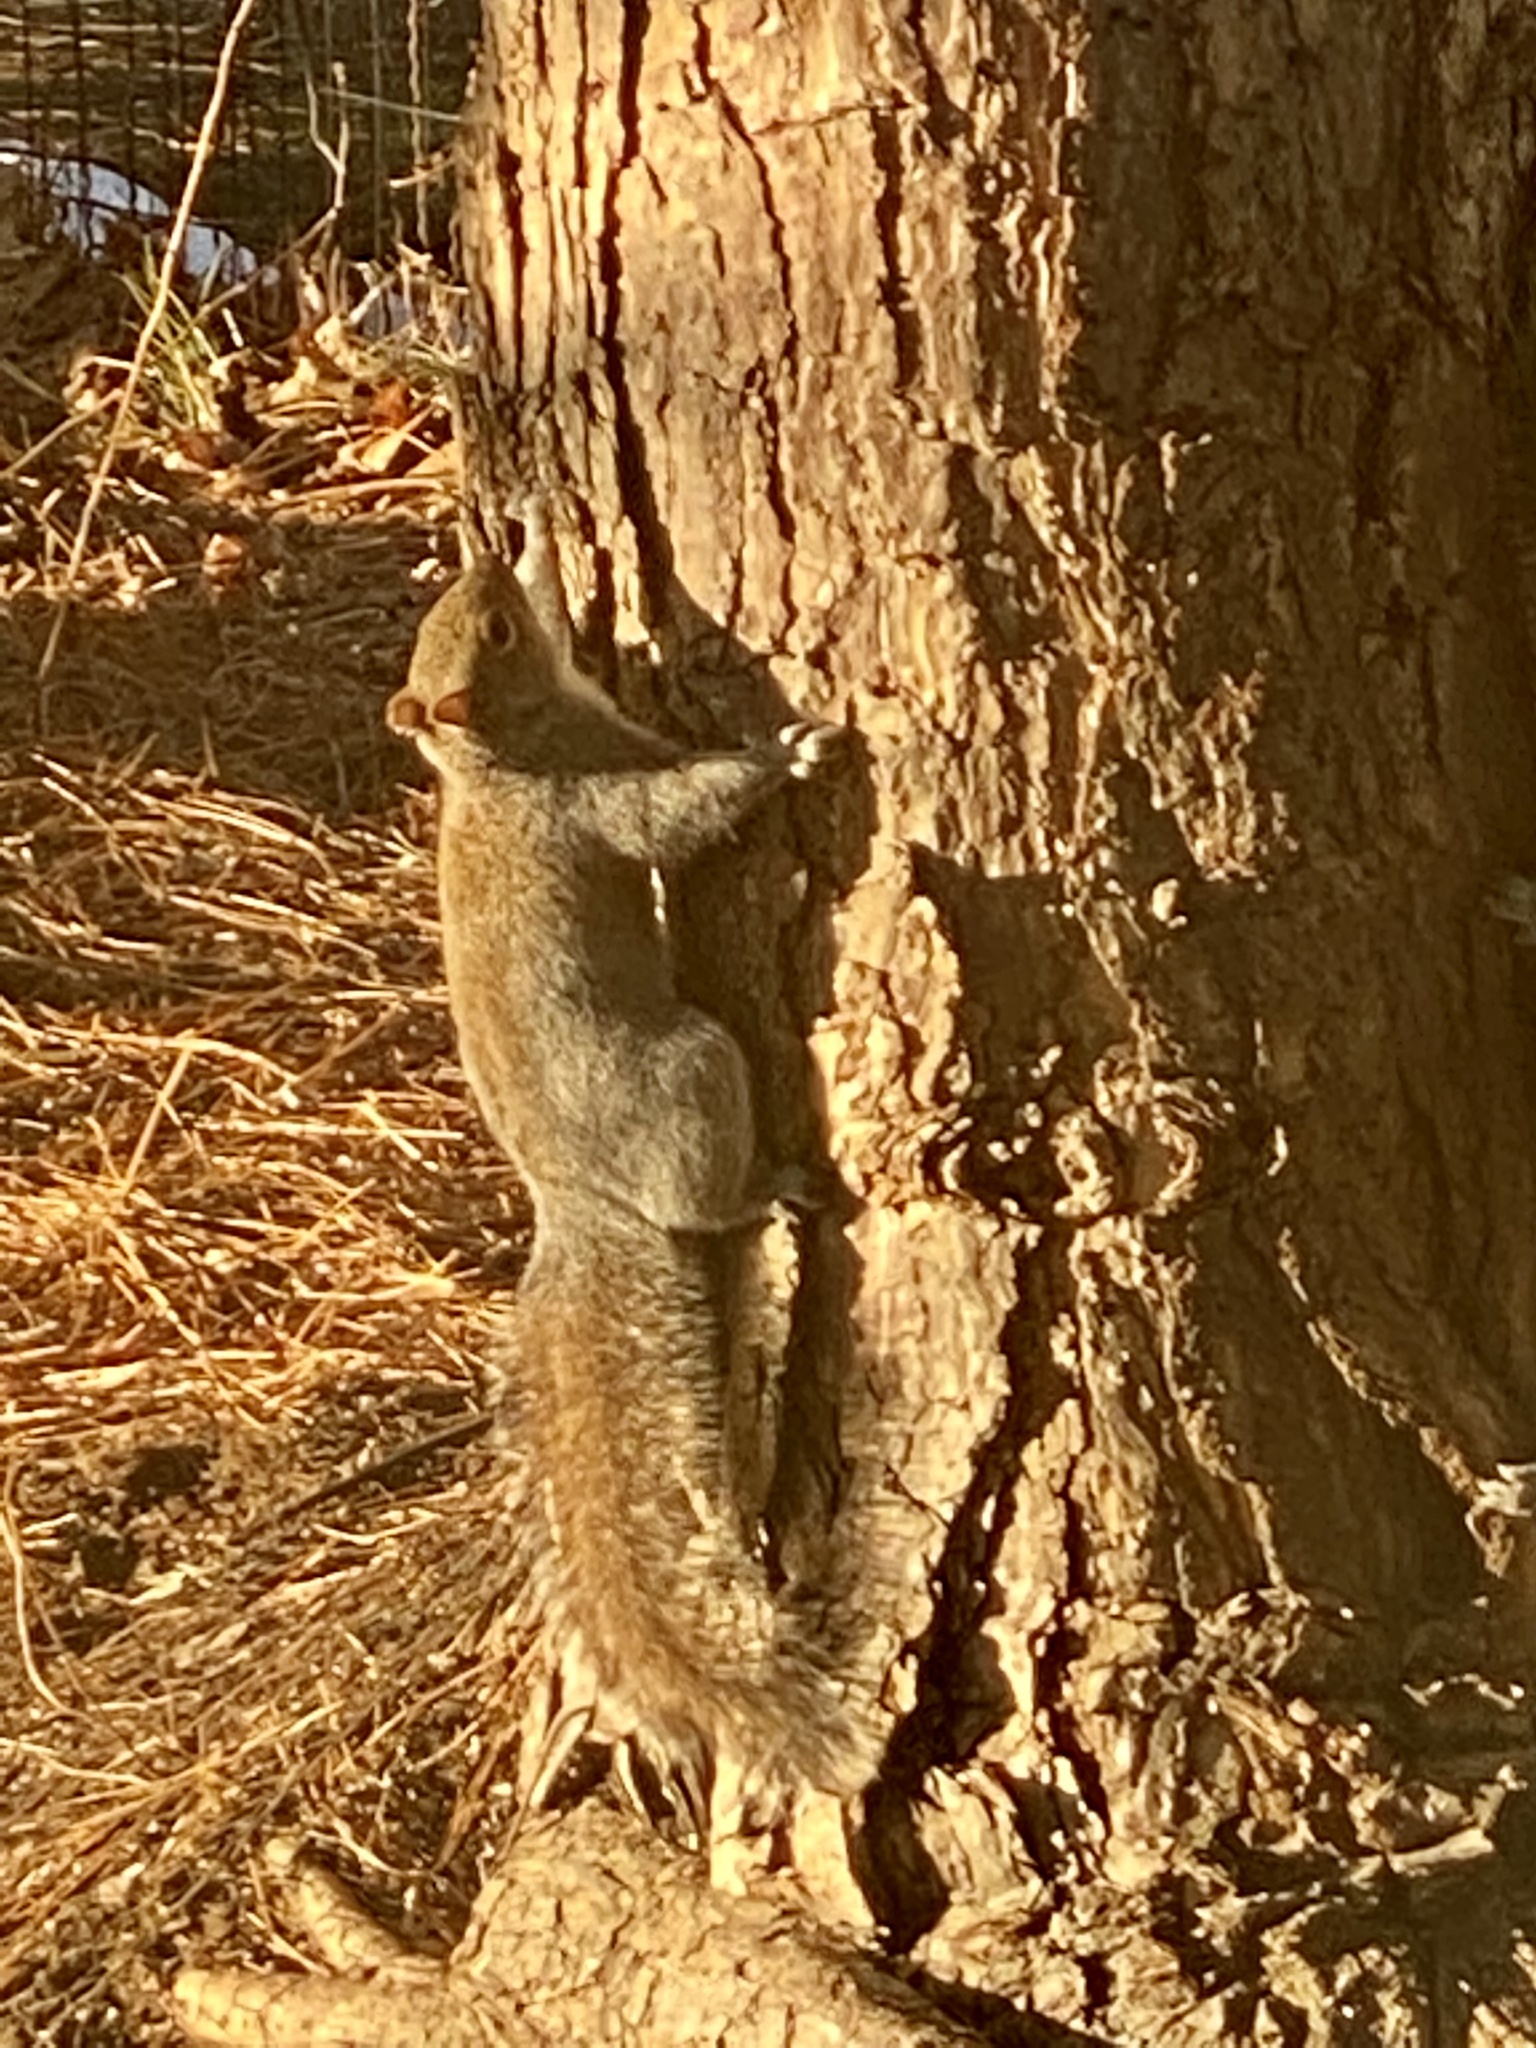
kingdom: Animalia
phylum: Chordata
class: Mammalia
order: Rodentia
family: Sciuridae
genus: Sciurus
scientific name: Sciurus carolinensis
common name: Eastern gray squirrel
